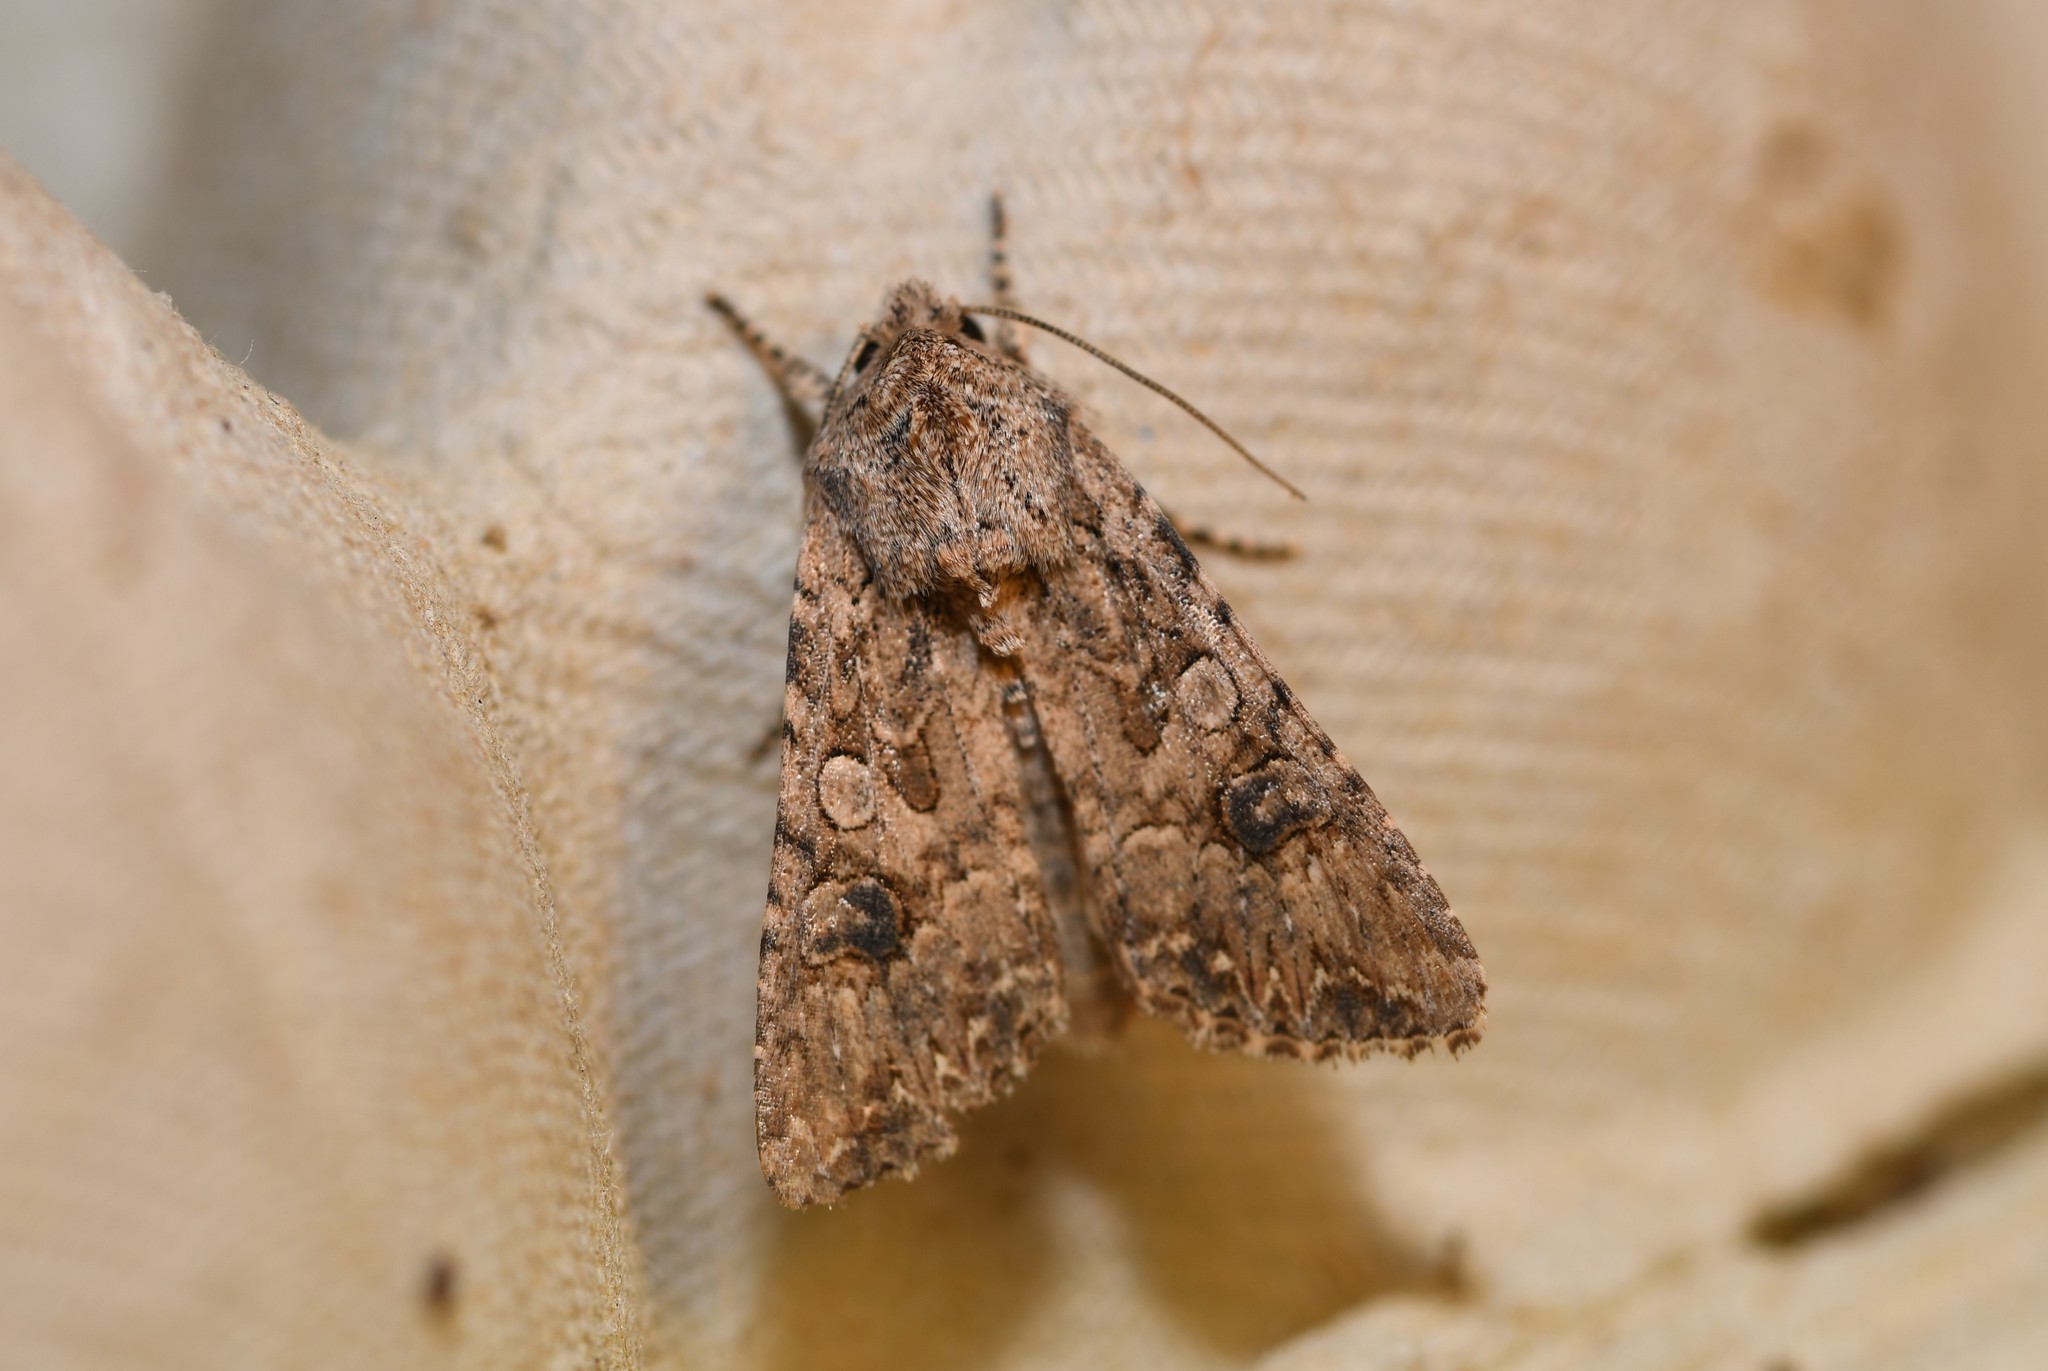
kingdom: Animalia
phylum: Arthropoda
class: Insecta
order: Lepidoptera
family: Noctuidae
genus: Anarta
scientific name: Anarta trifolii
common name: Clover cutworm moth
